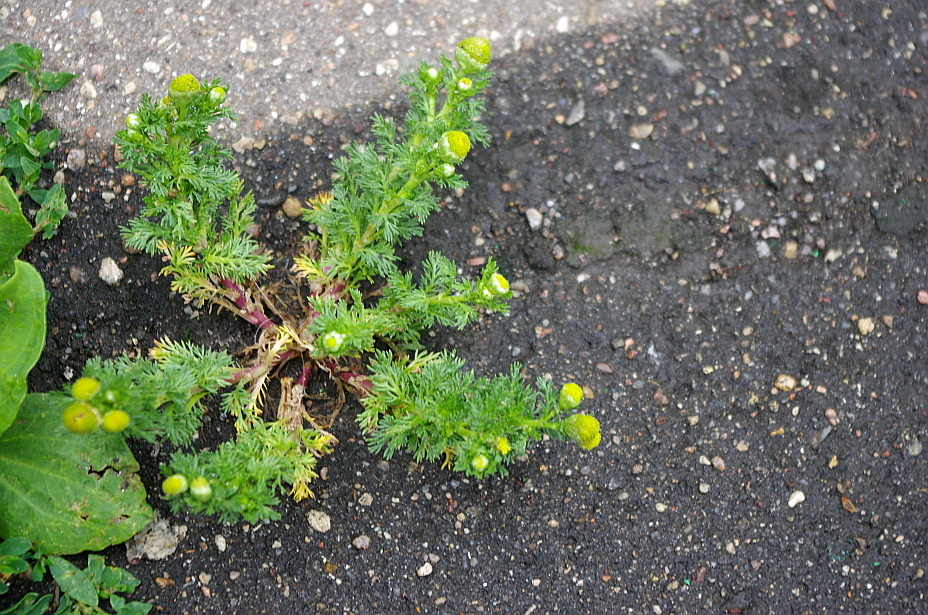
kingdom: Plantae
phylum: Tracheophyta
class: Magnoliopsida
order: Asterales
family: Asteraceae
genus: Matricaria
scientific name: Matricaria discoidea
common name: Disc mayweed
